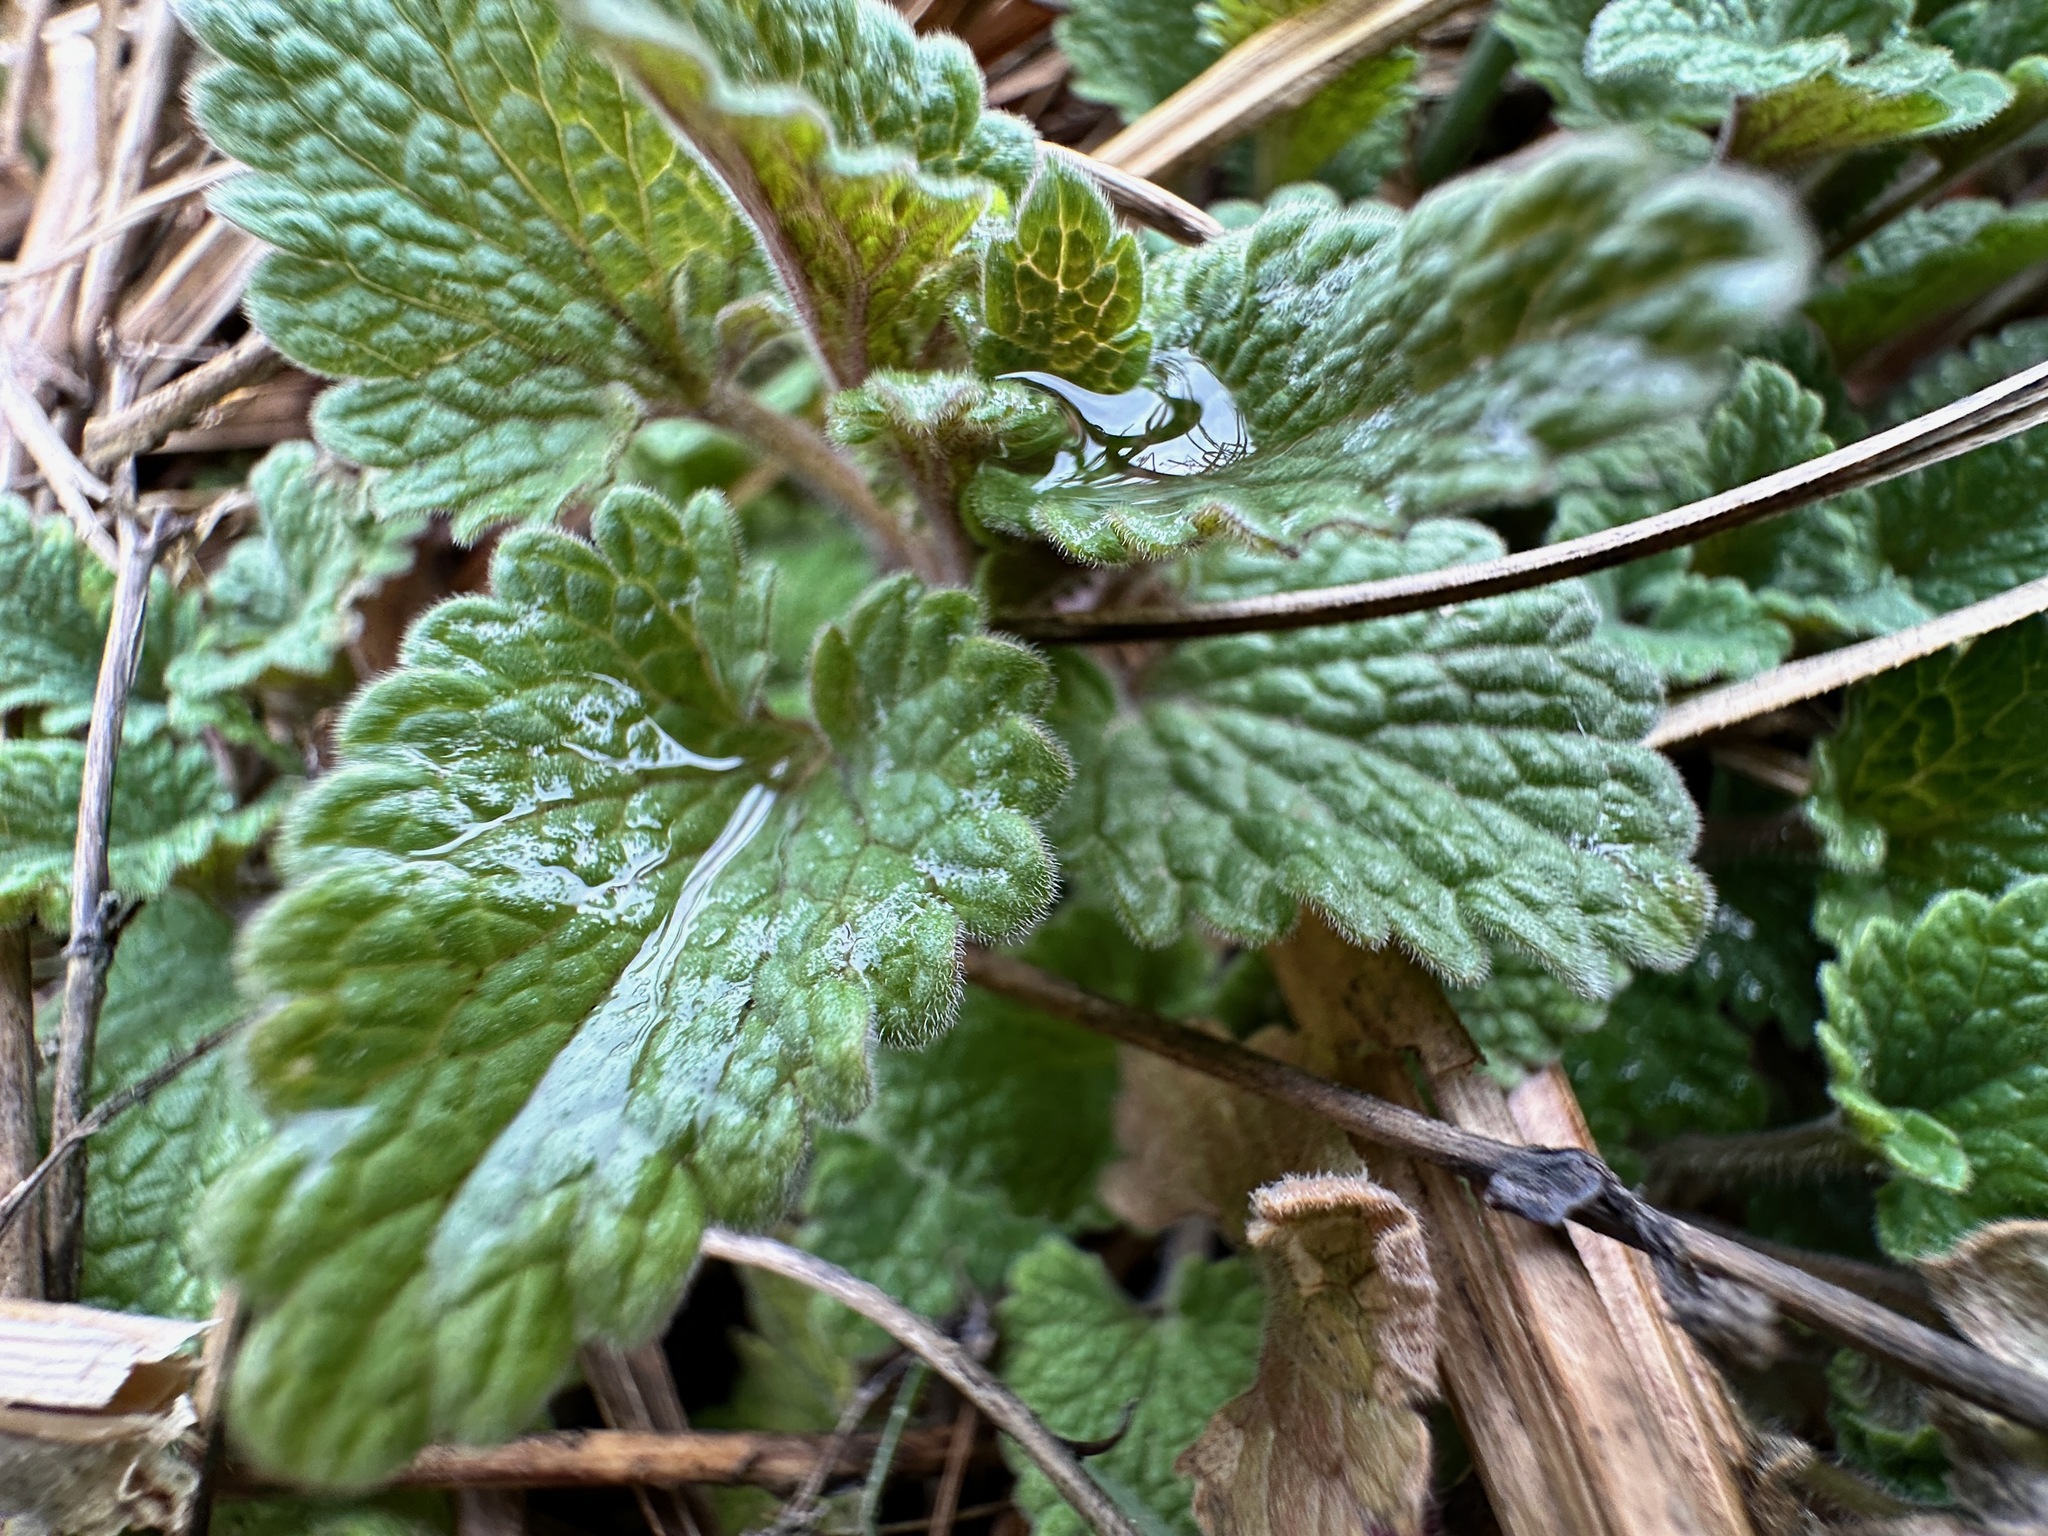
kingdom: Plantae
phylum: Tracheophyta
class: Magnoliopsida
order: Lamiales
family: Lamiaceae
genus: Nepeta
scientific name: Nepeta cataria
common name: Catnip
